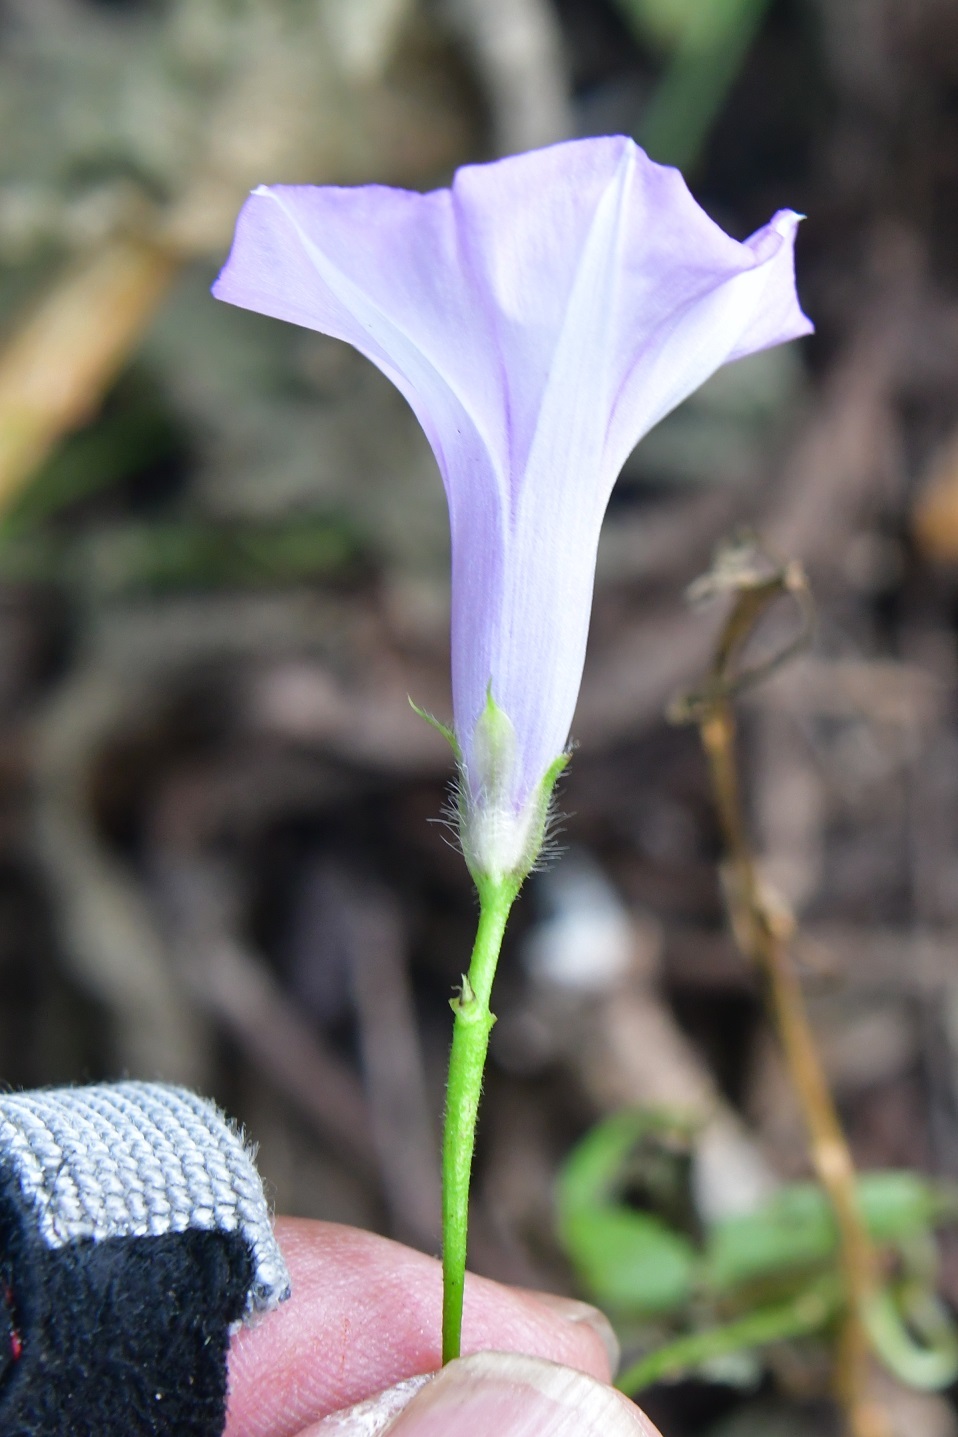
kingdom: Plantae
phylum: Tracheophyta
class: Magnoliopsida
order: Solanales
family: Convolvulaceae
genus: Ipomoea
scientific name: Ipomoea triloba
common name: Little-bell
